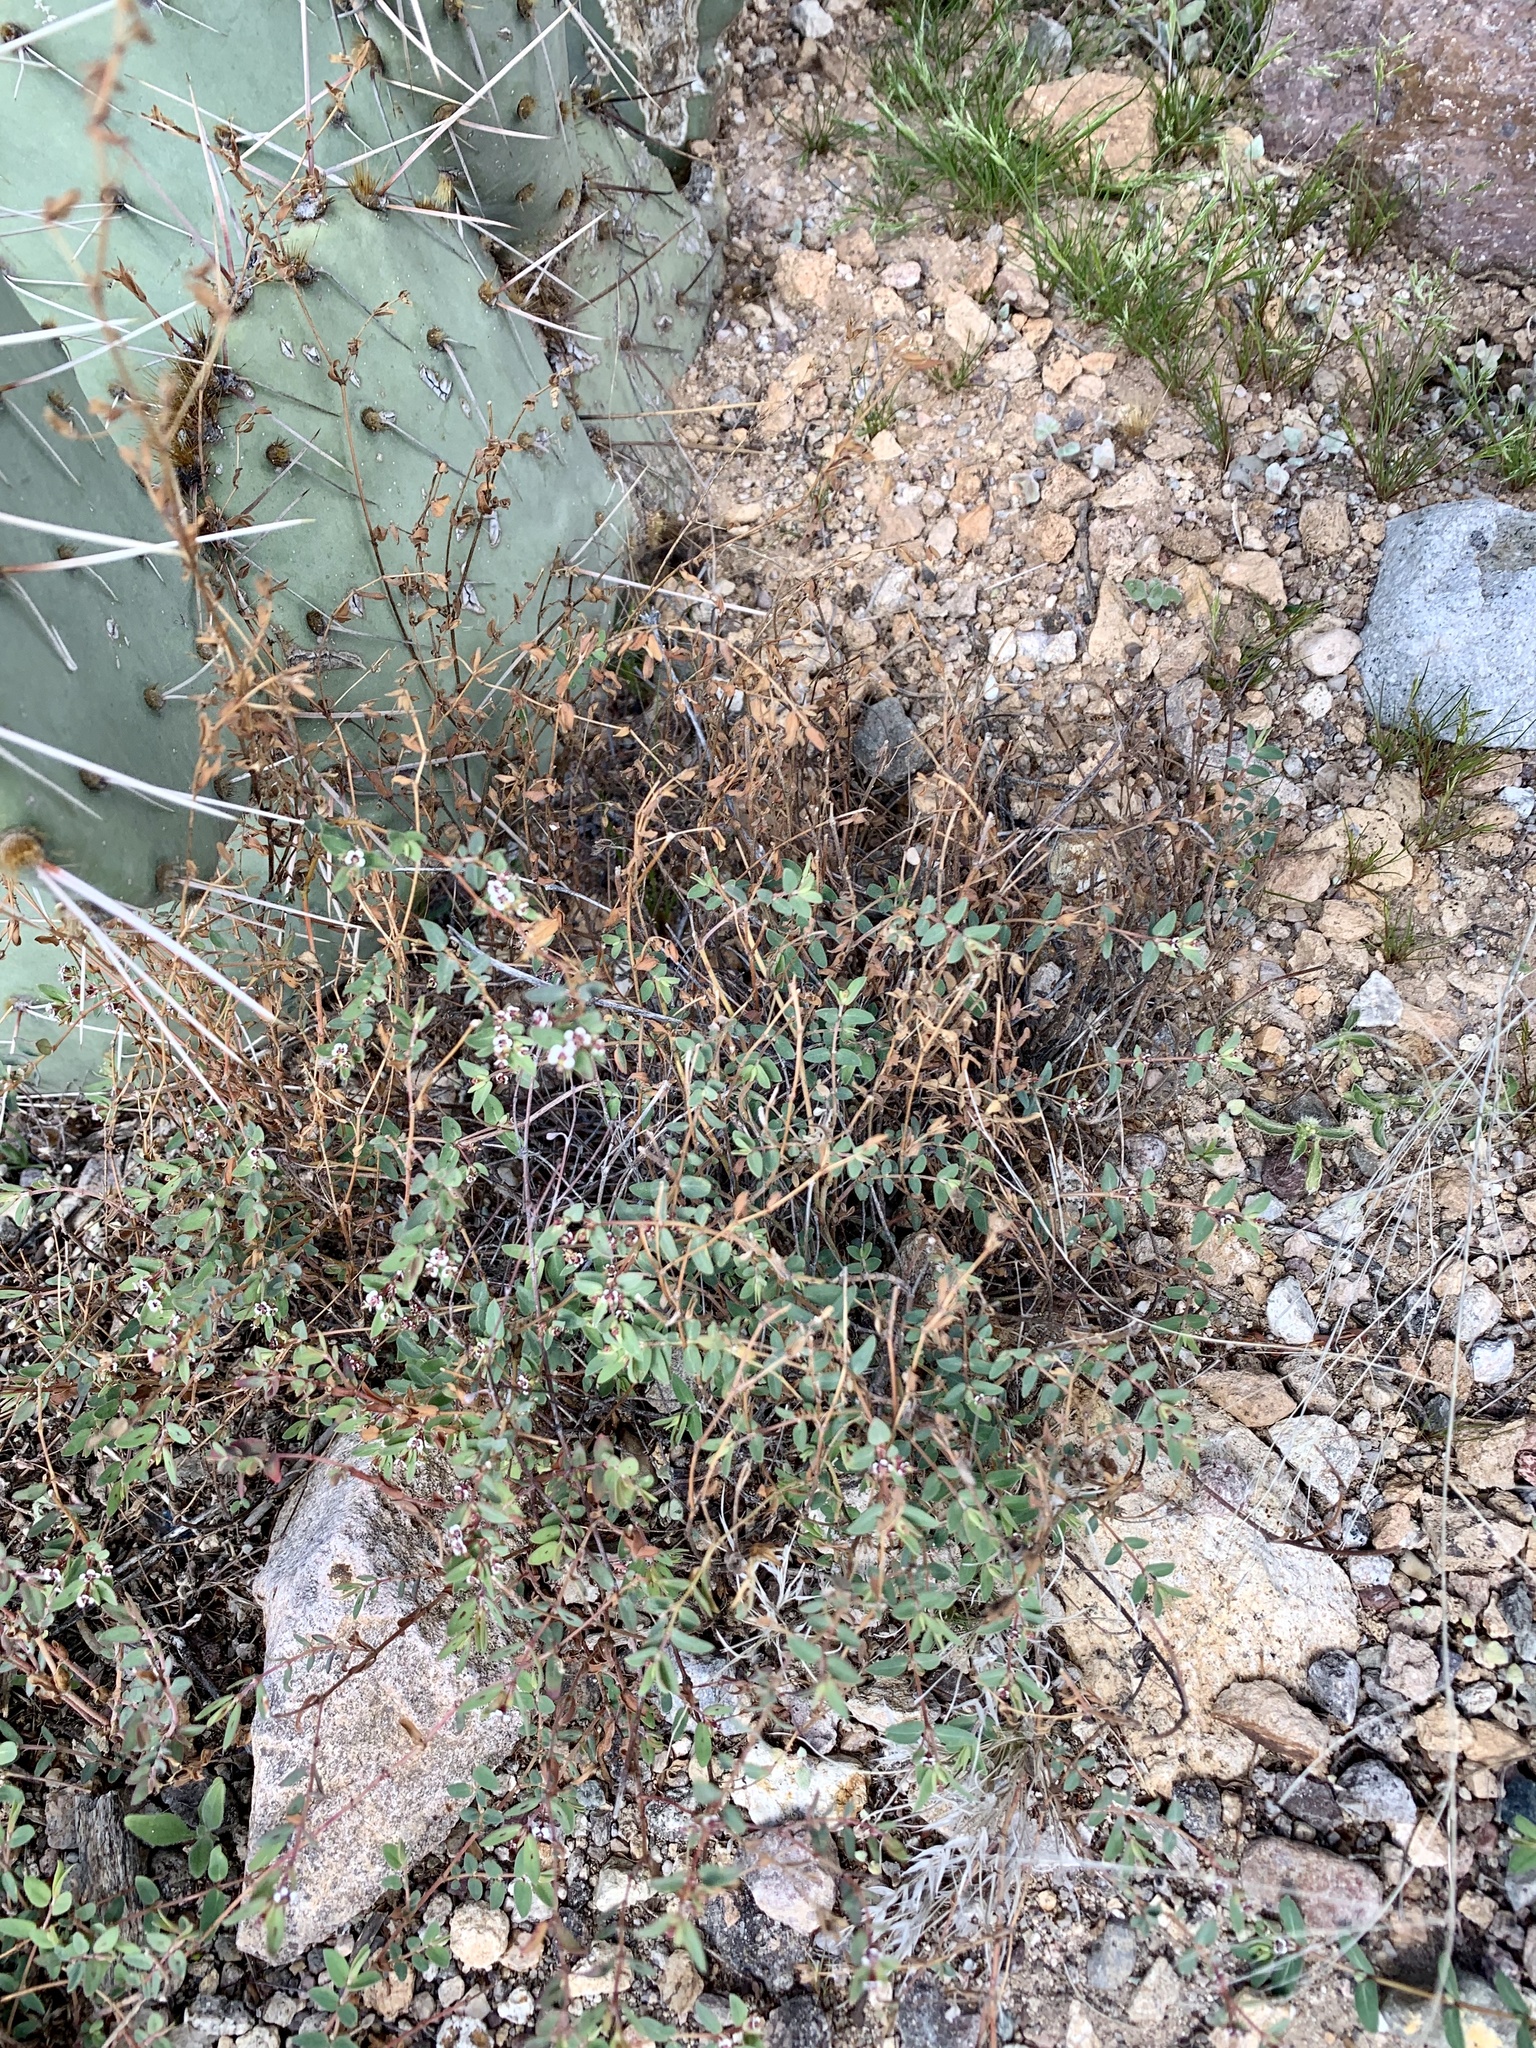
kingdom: Plantae
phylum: Tracheophyta
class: Magnoliopsida
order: Malpighiales
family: Euphorbiaceae
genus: Euphorbia
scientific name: Euphorbia capitellata
